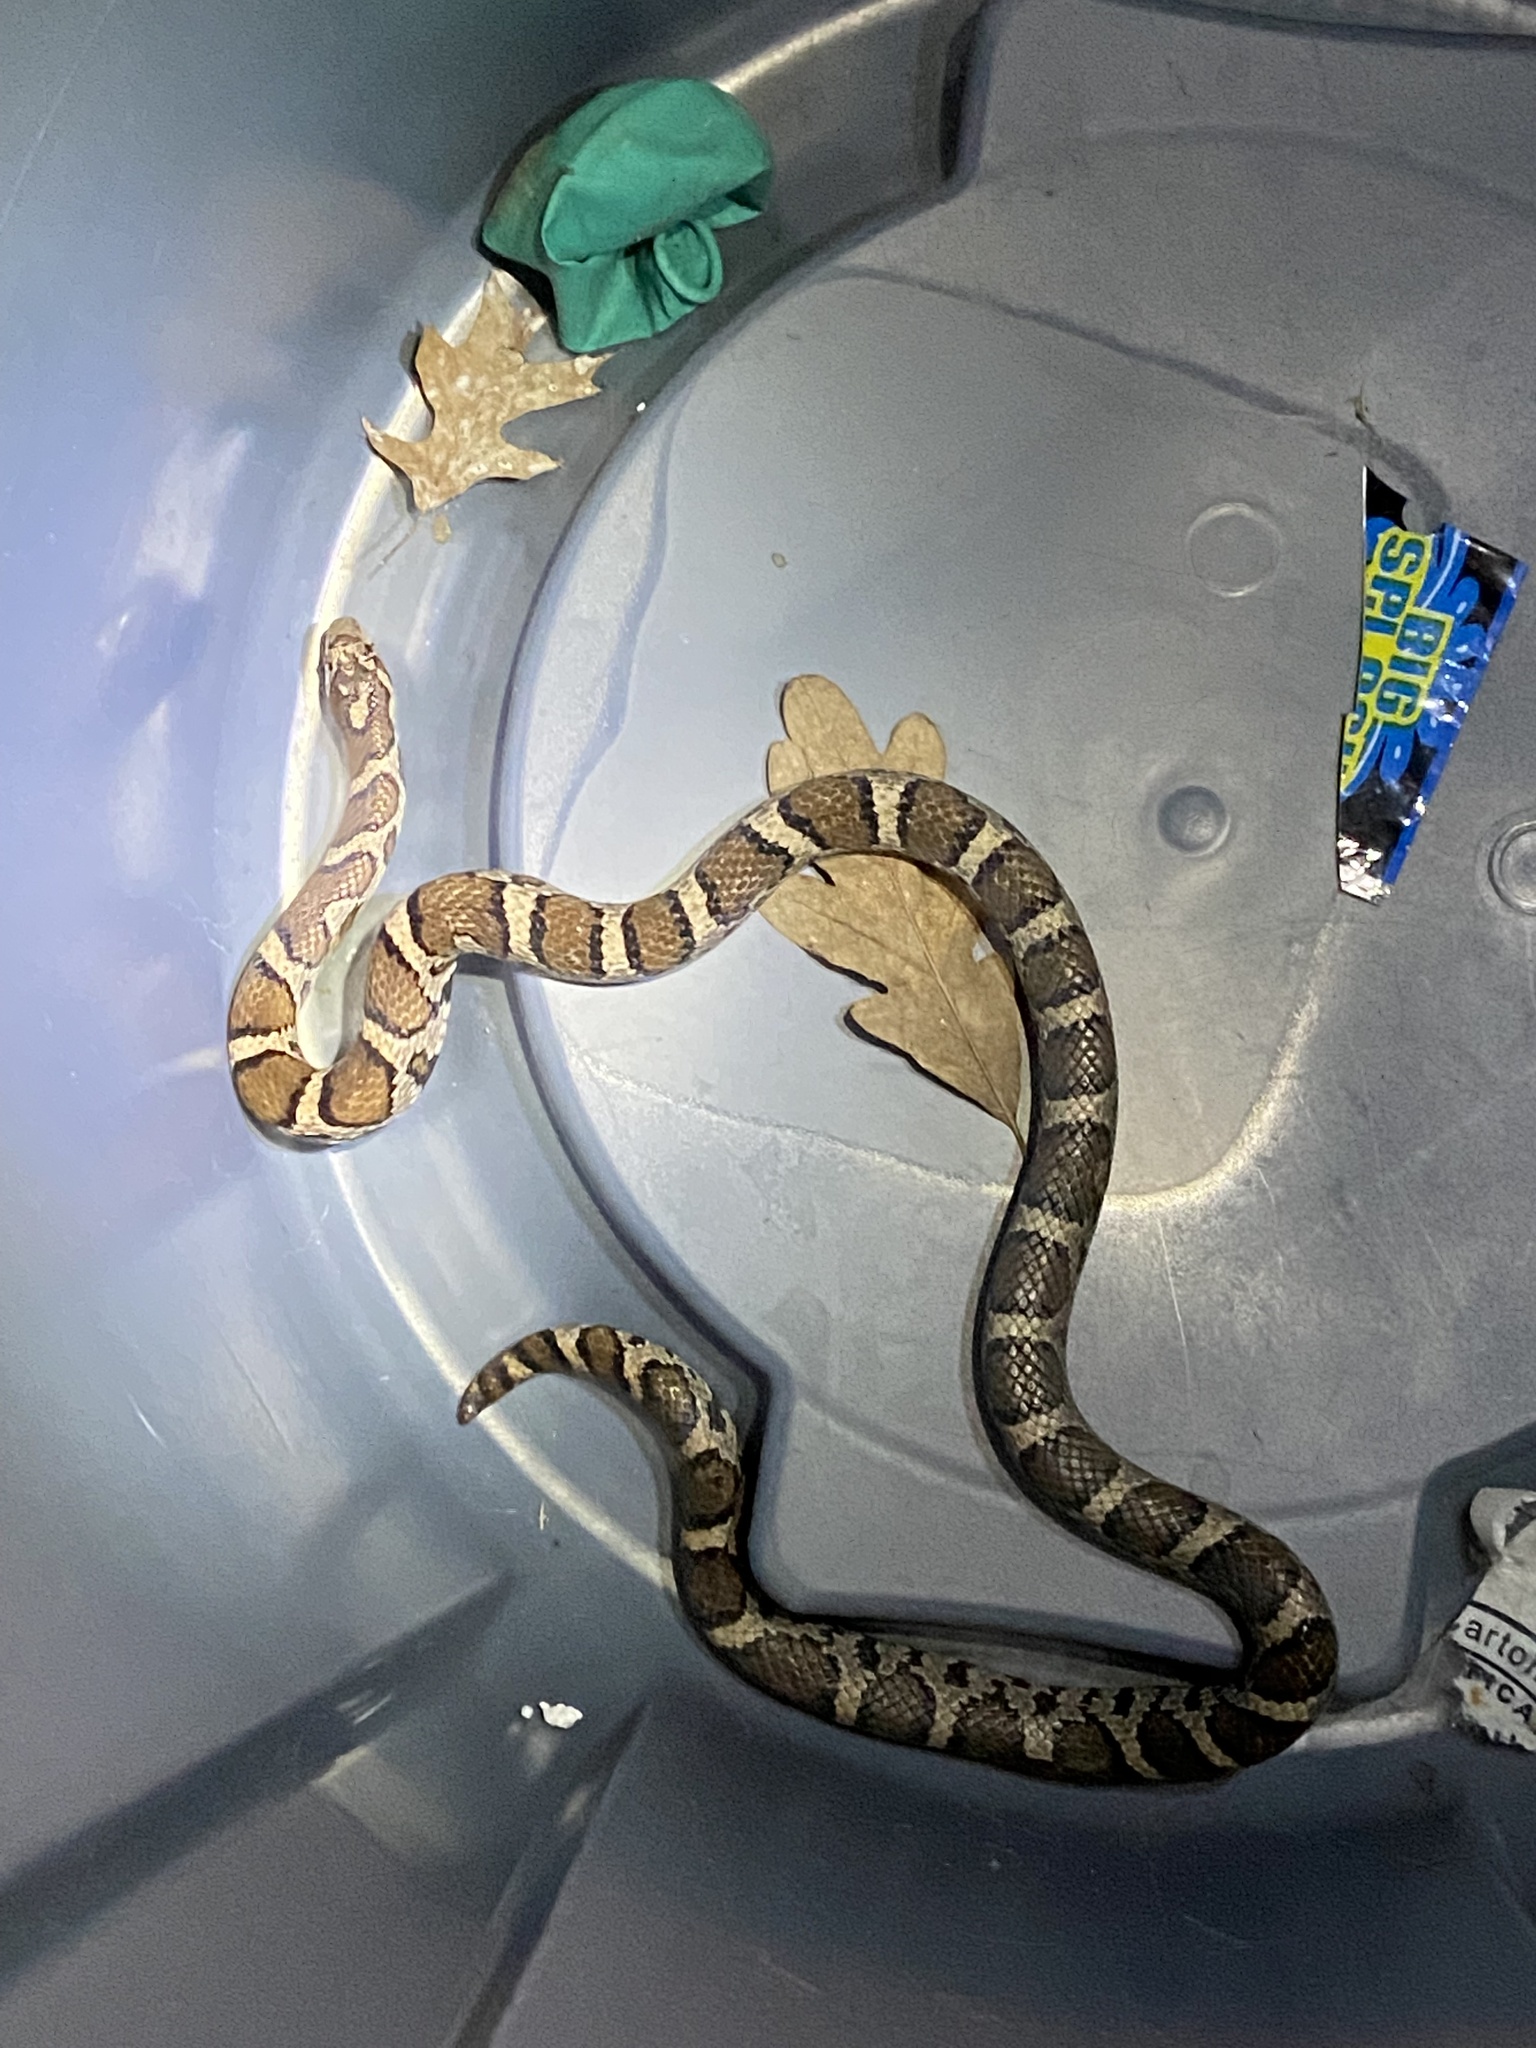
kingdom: Animalia
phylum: Chordata
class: Squamata
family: Colubridae
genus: Lampropeltis
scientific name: Lampropeltis triangulum
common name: Eastern milksnake
